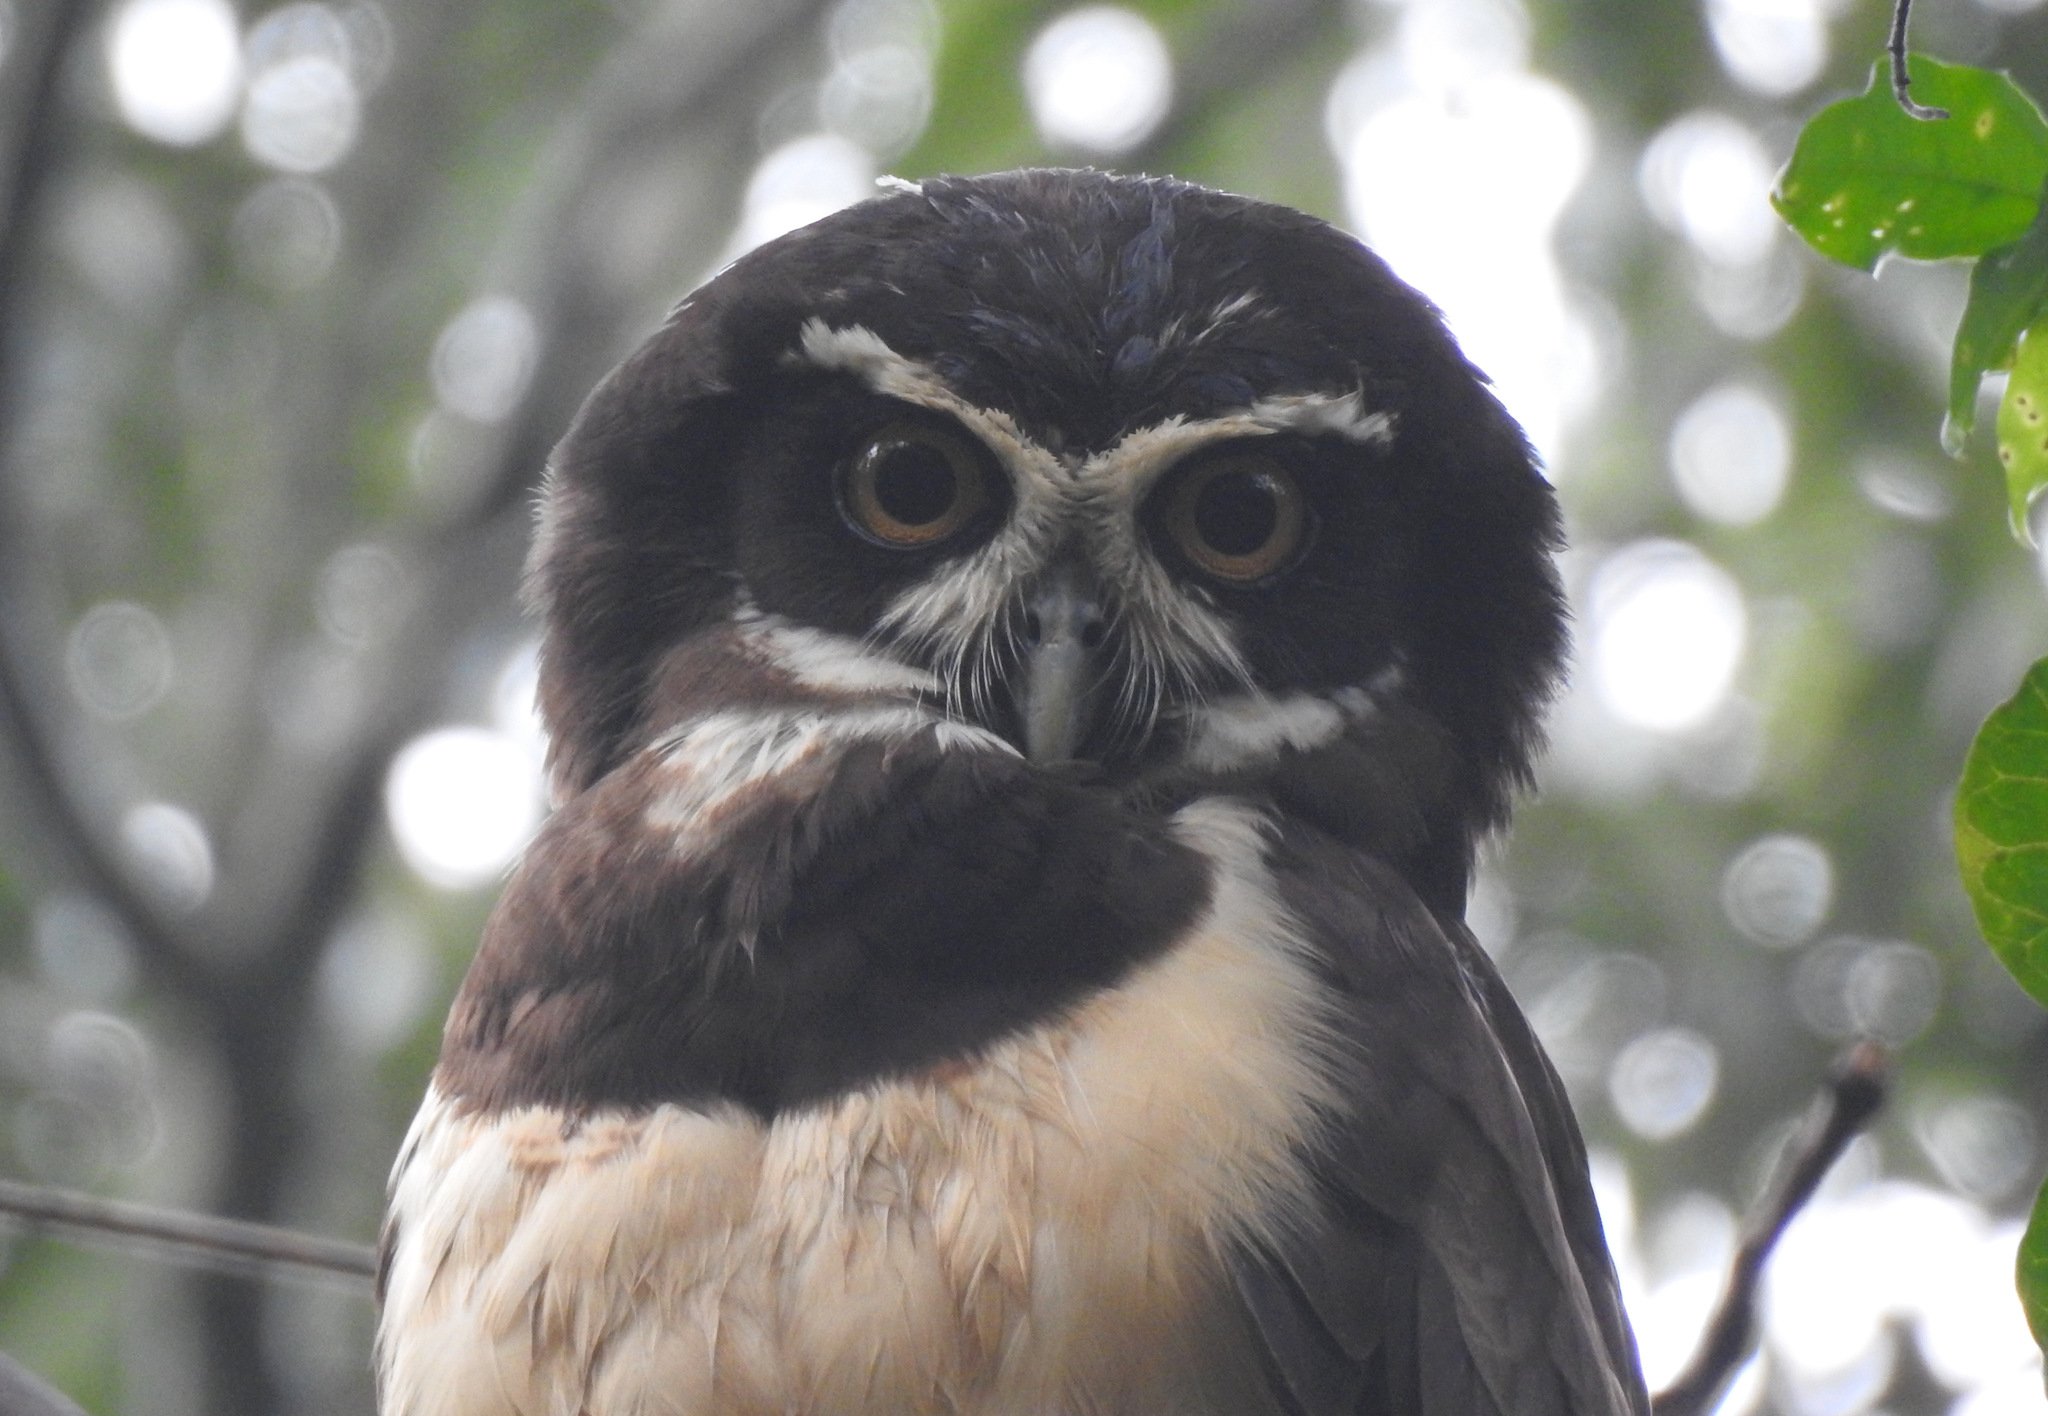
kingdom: Animalia
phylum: Chordata
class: Aves
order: Strigiformes
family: Strigidae
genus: Pulsatrix
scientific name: Pulsatrix perspicillata
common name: Spectacled owl
